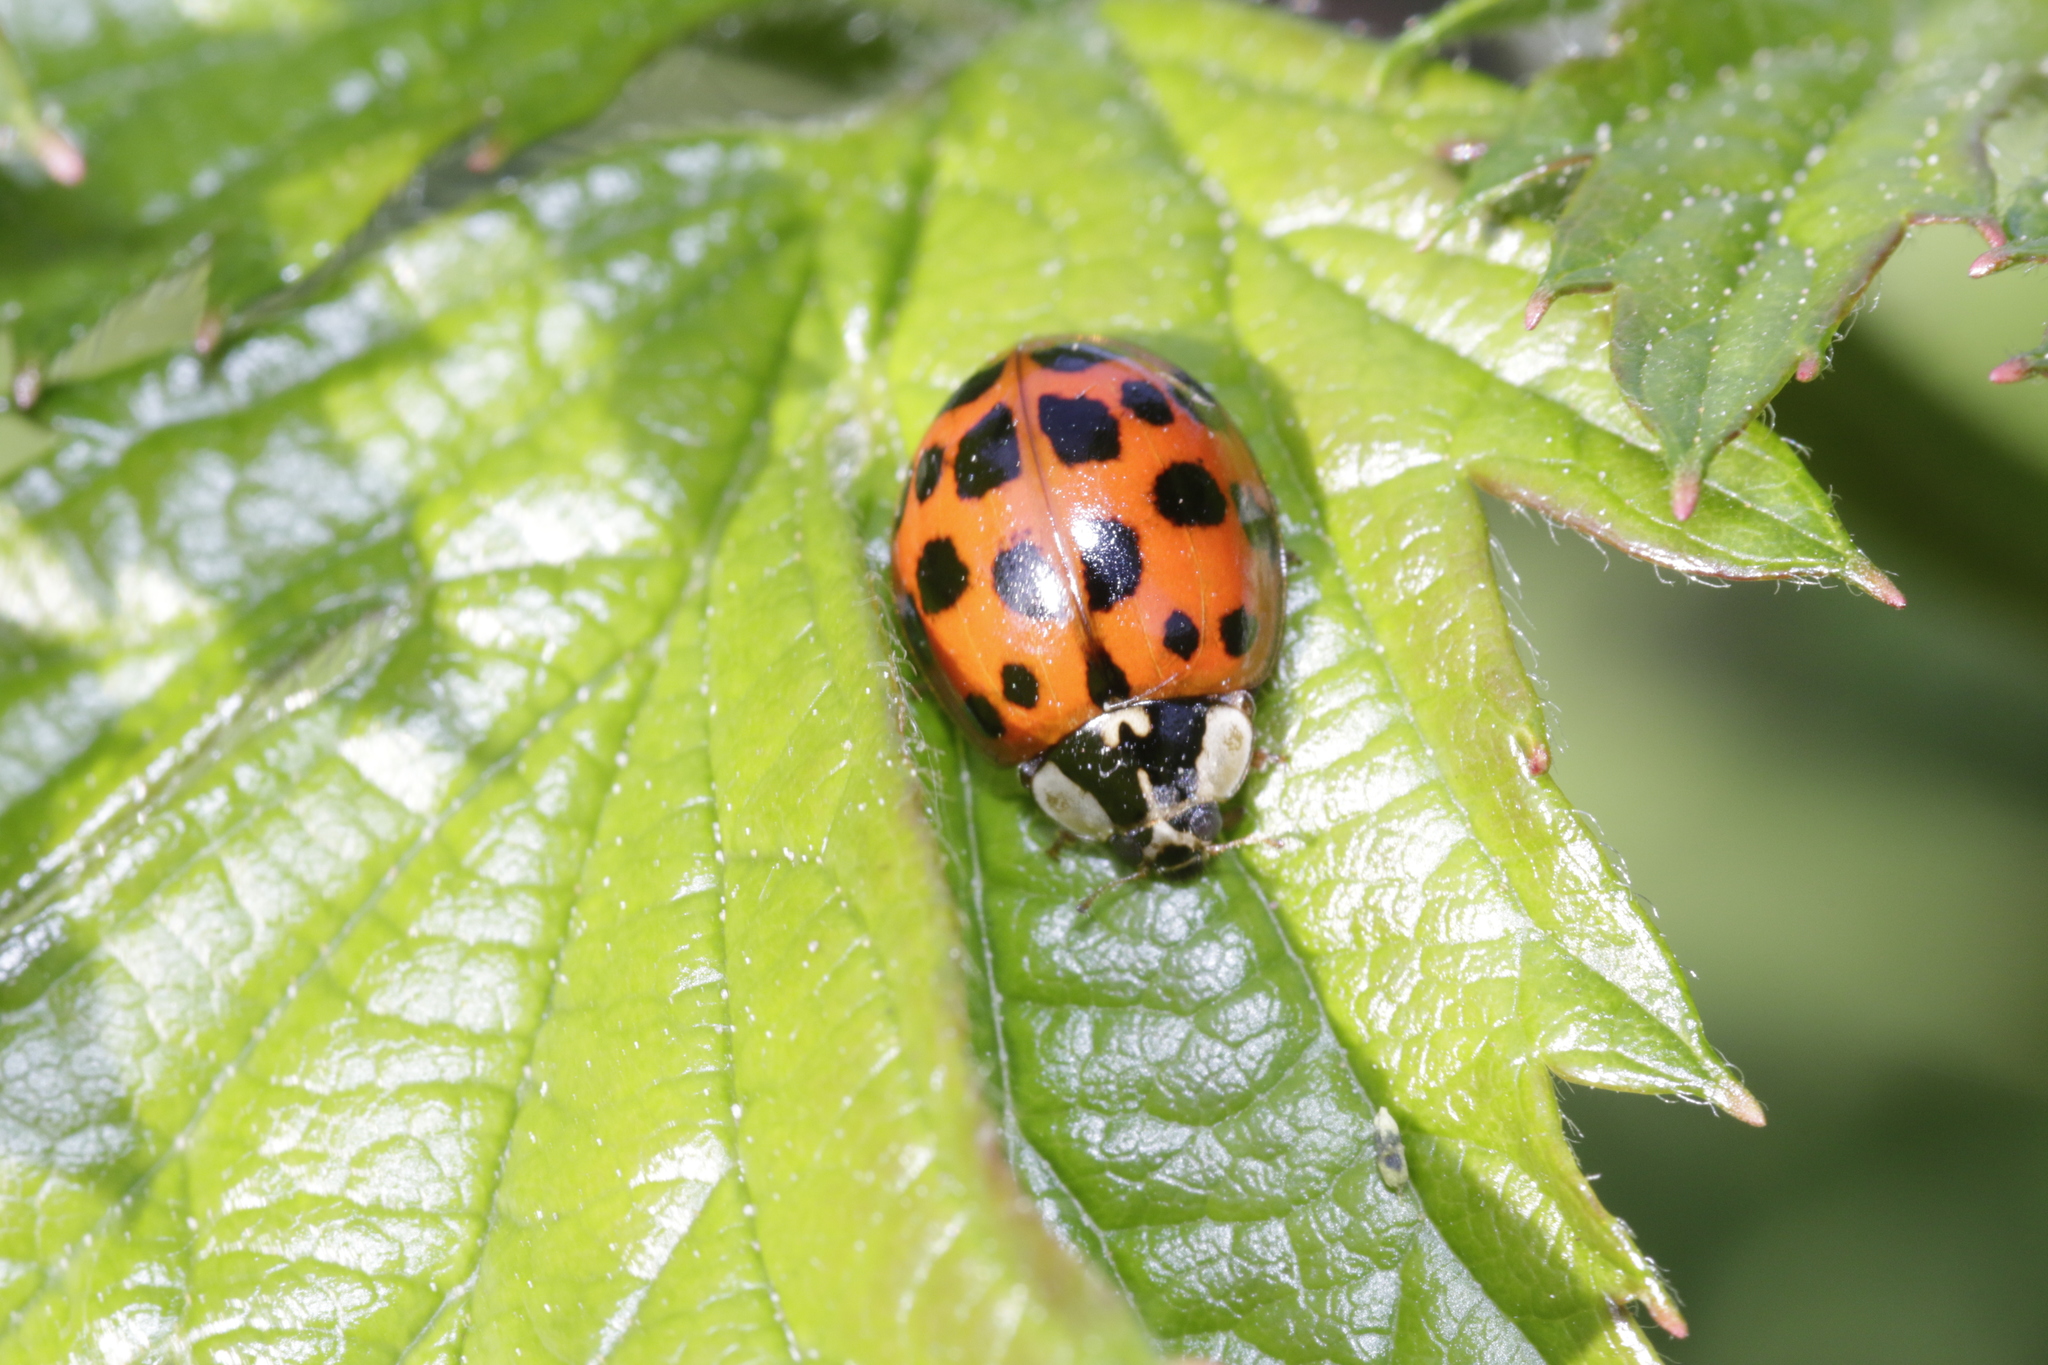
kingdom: Animalia
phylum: Arthropoda
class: Insecta
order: Coleoptera
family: Coccinellidae
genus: Harmonia
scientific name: Harmonia axyridis
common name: Harlequin ladybird
